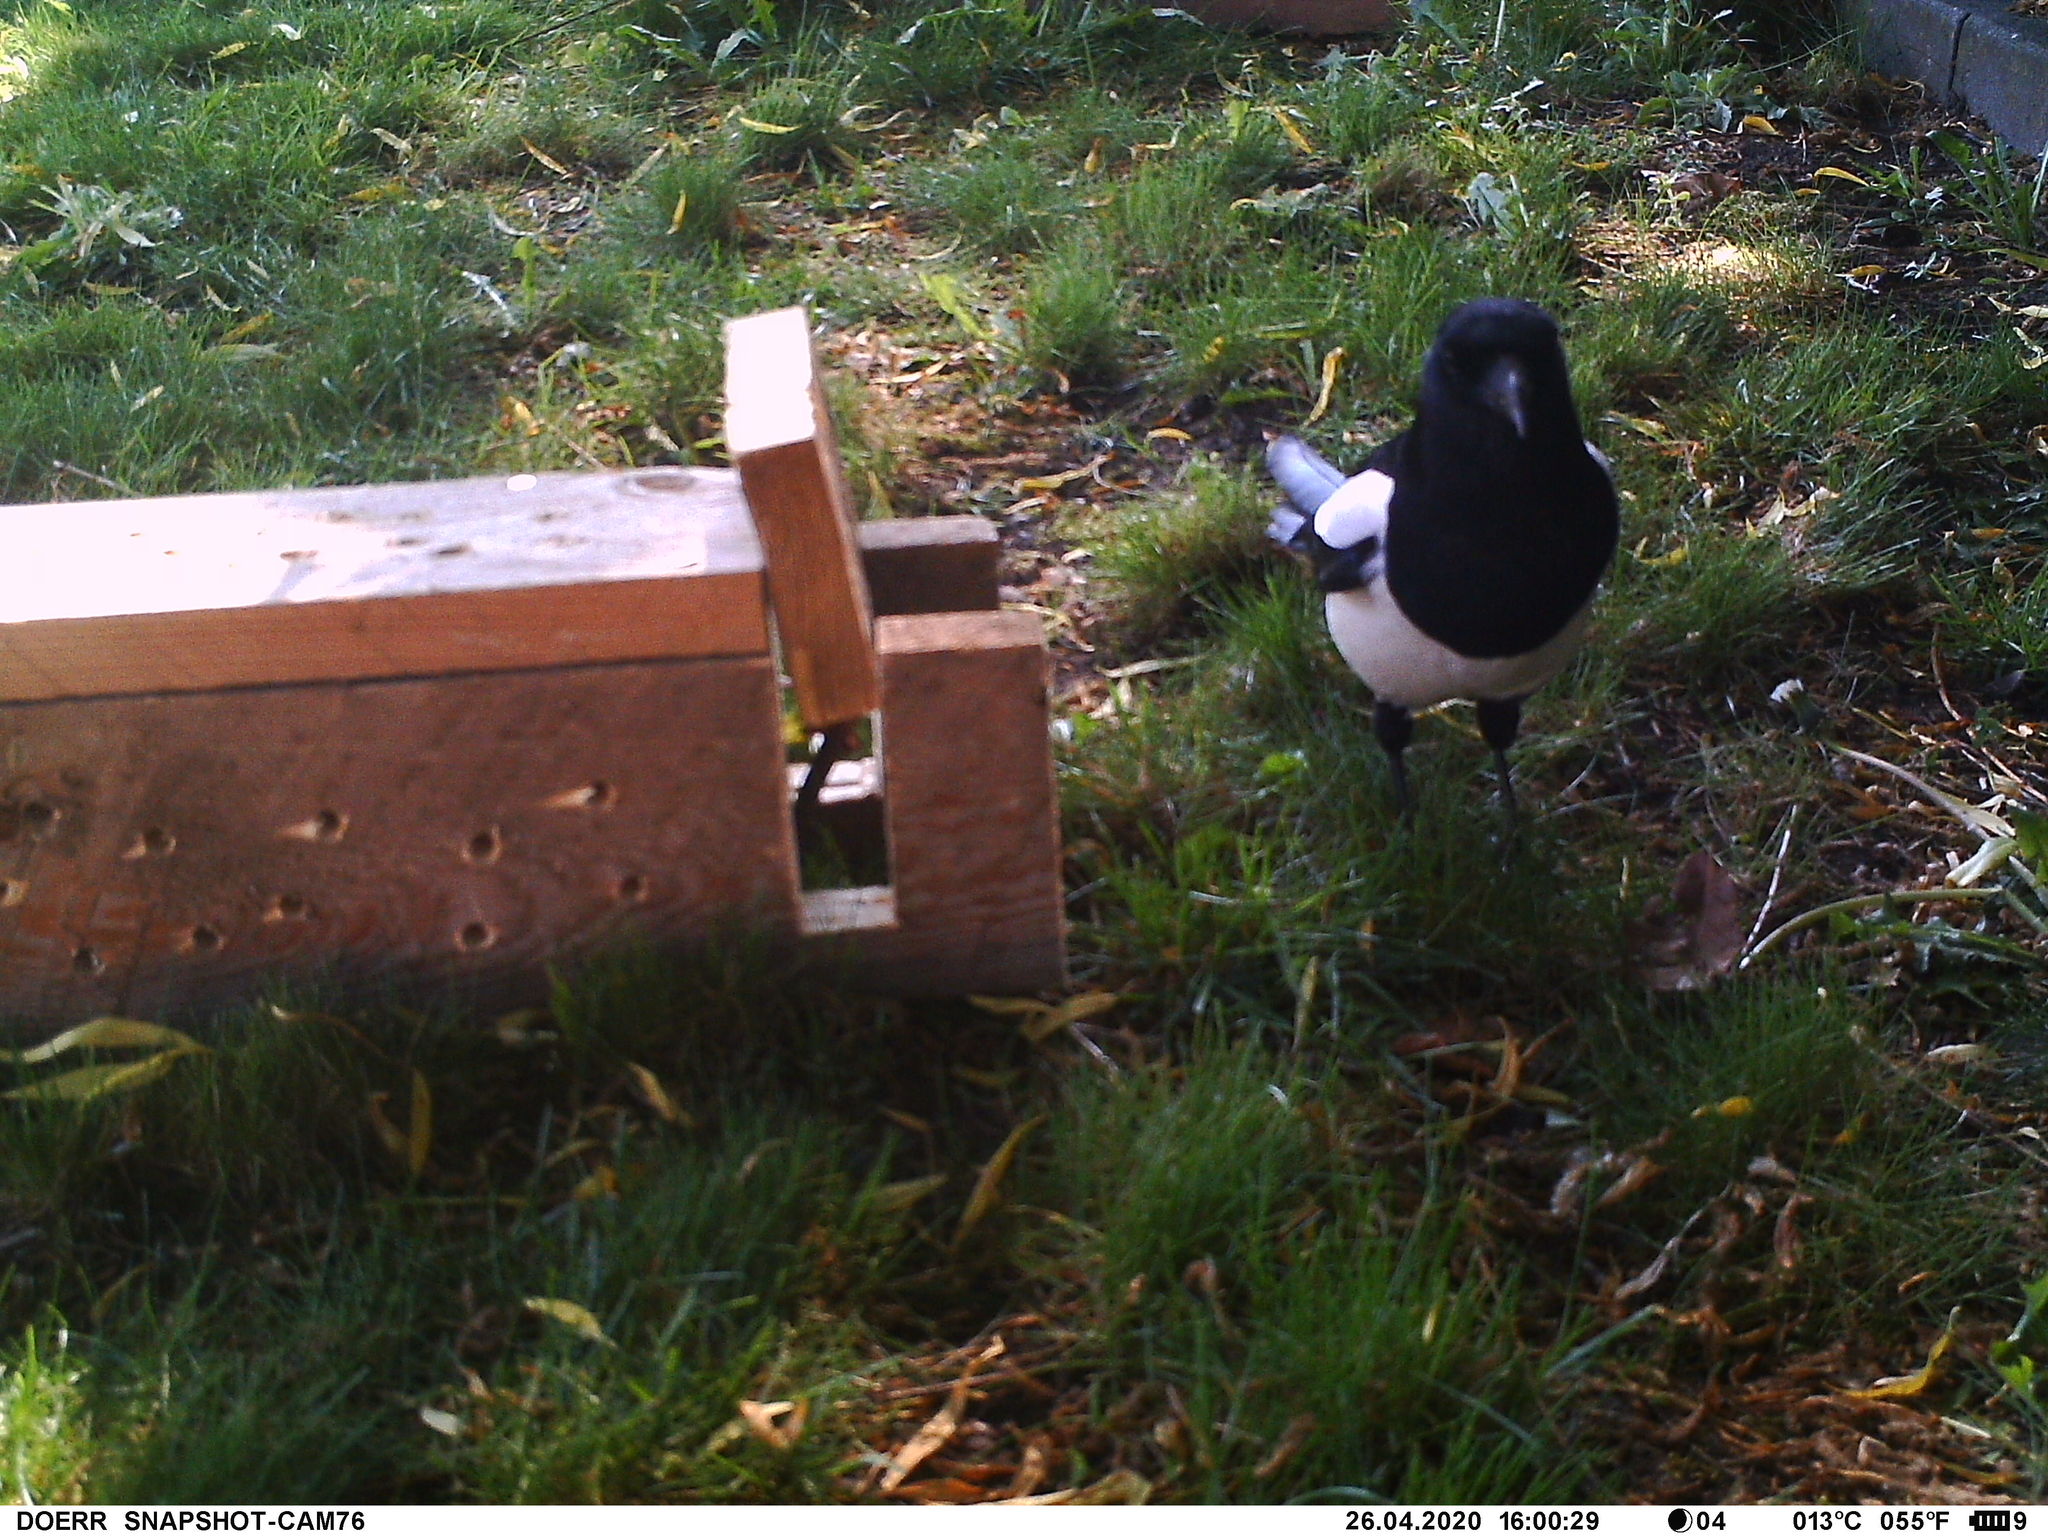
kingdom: Animalia
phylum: Chordata
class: Aves
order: Passeriformes
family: Corvidae
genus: Pica
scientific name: Pica pica
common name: Eurasian magpie
